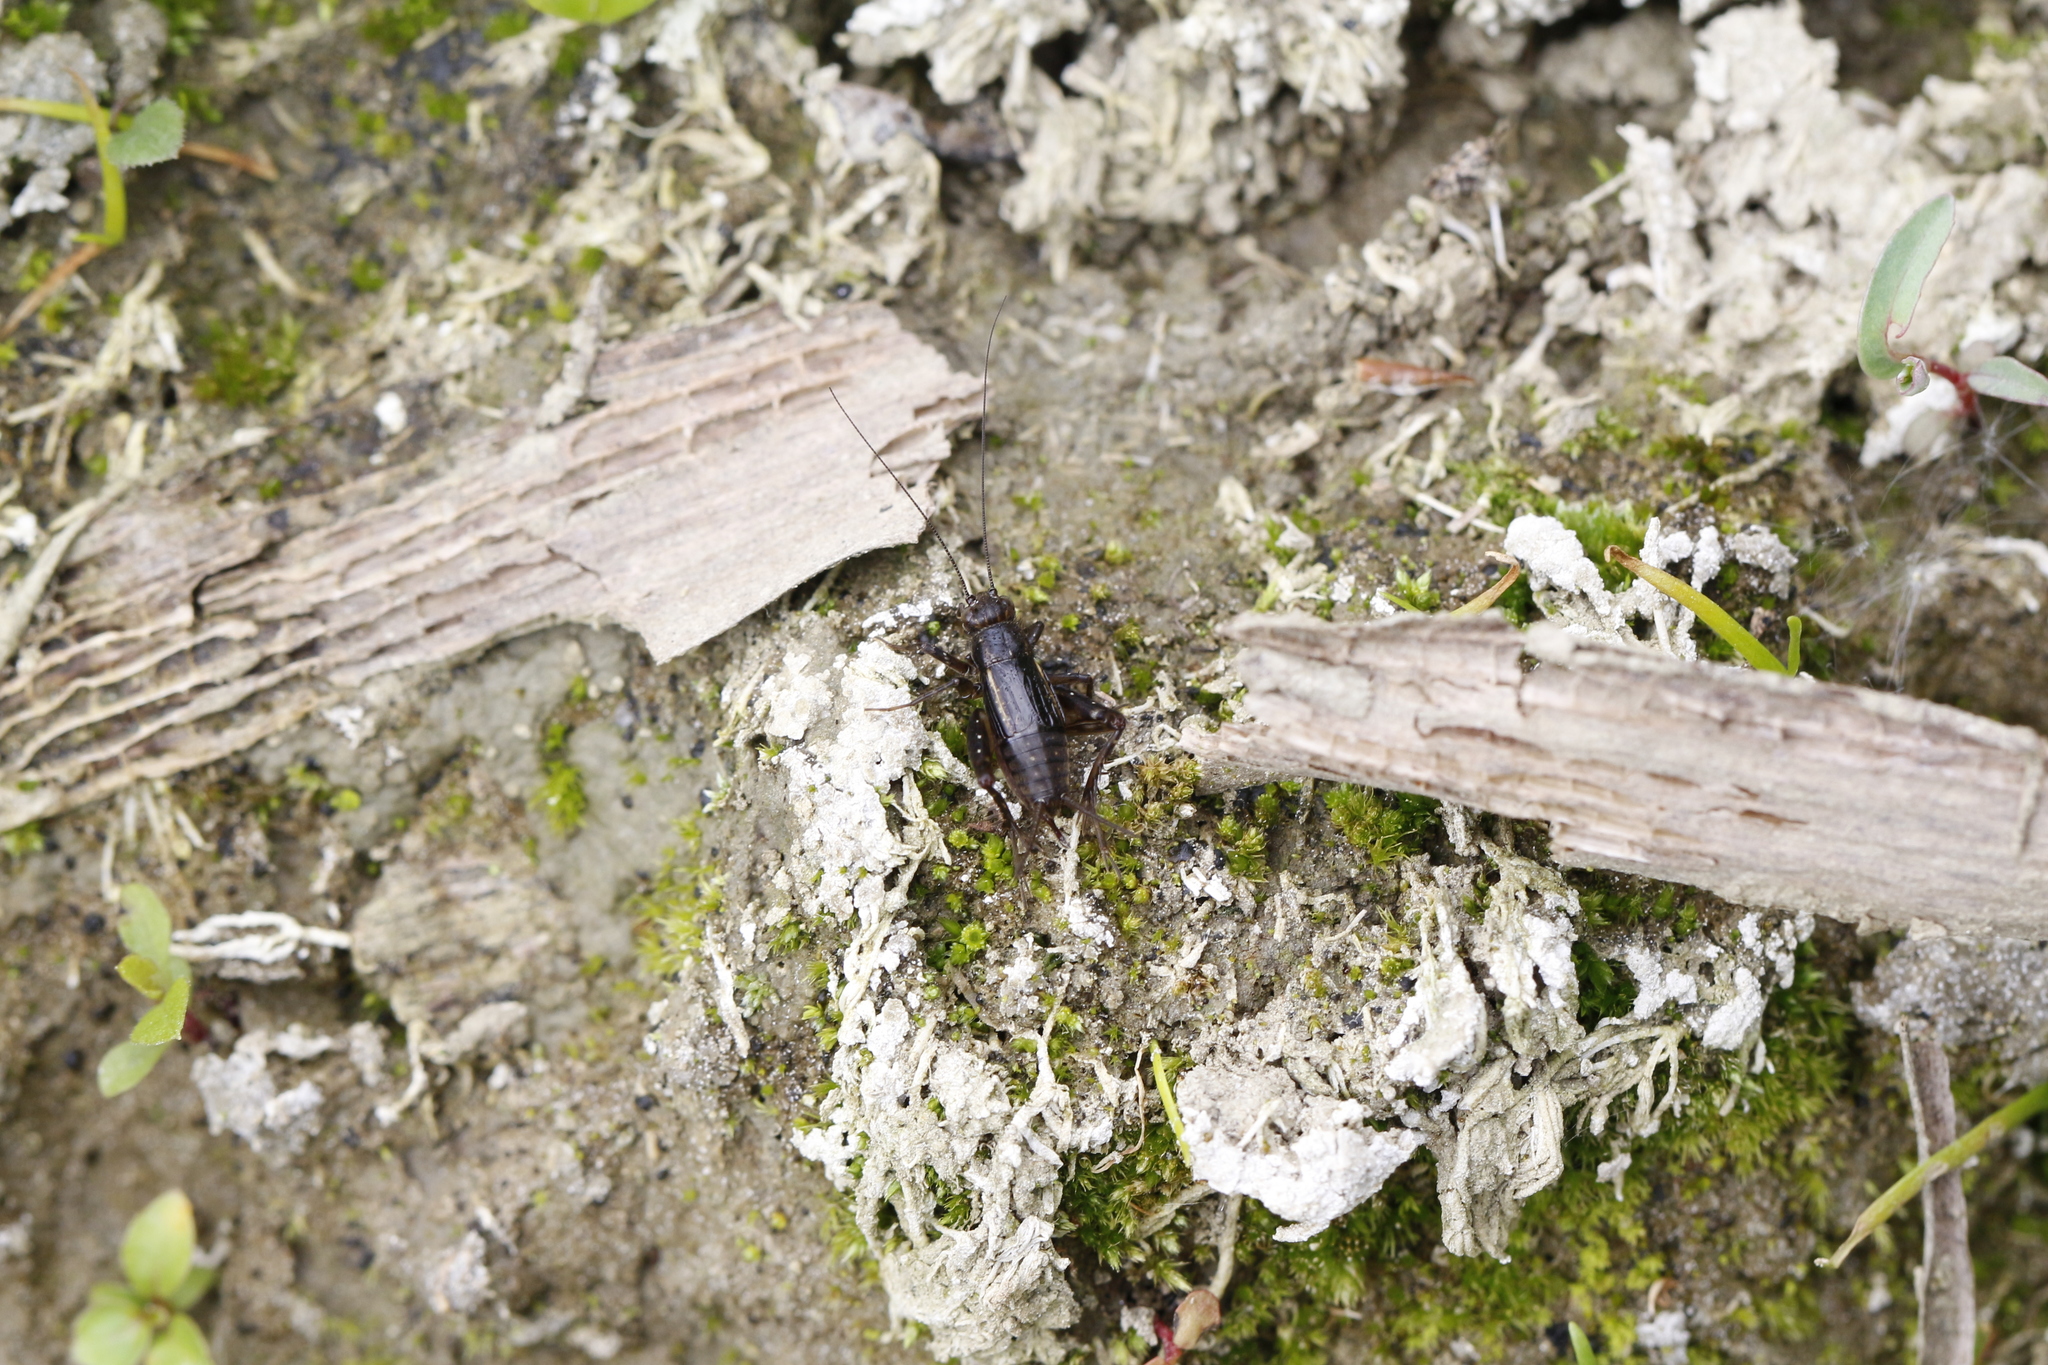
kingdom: Animalia
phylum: Arthropoda
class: Insecta
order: Orthoptera
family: Trigonidiidae
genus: Pteronemobius
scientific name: Pteronemobius heydenii
